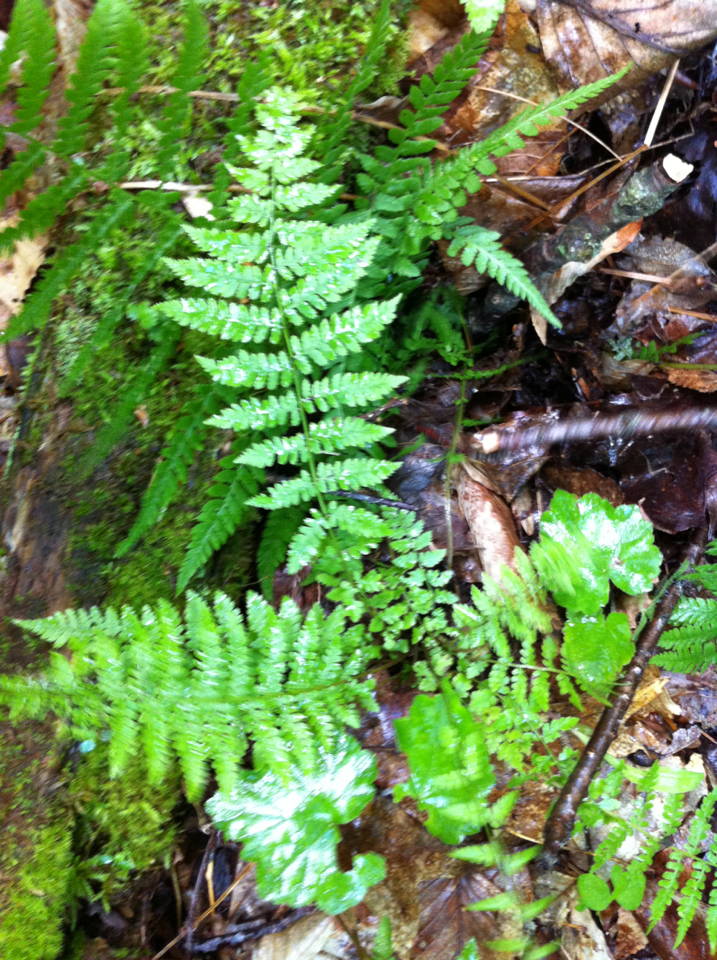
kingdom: Plantae
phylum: Tracheophyta
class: Polypodiopsida
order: Polypodiales
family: Thelypteridaceae
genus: Amauropelta
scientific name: Amauropelta noveboracensis
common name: New york fern
